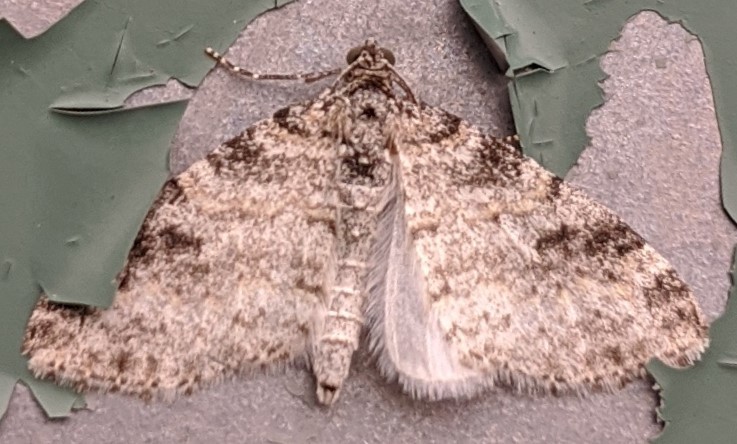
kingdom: Animalia
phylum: Arthropoda
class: Insecta
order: Lepidoptera
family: Geometridae
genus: Lobophora
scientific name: Lobophora nivigerata
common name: Powdered bigwing
